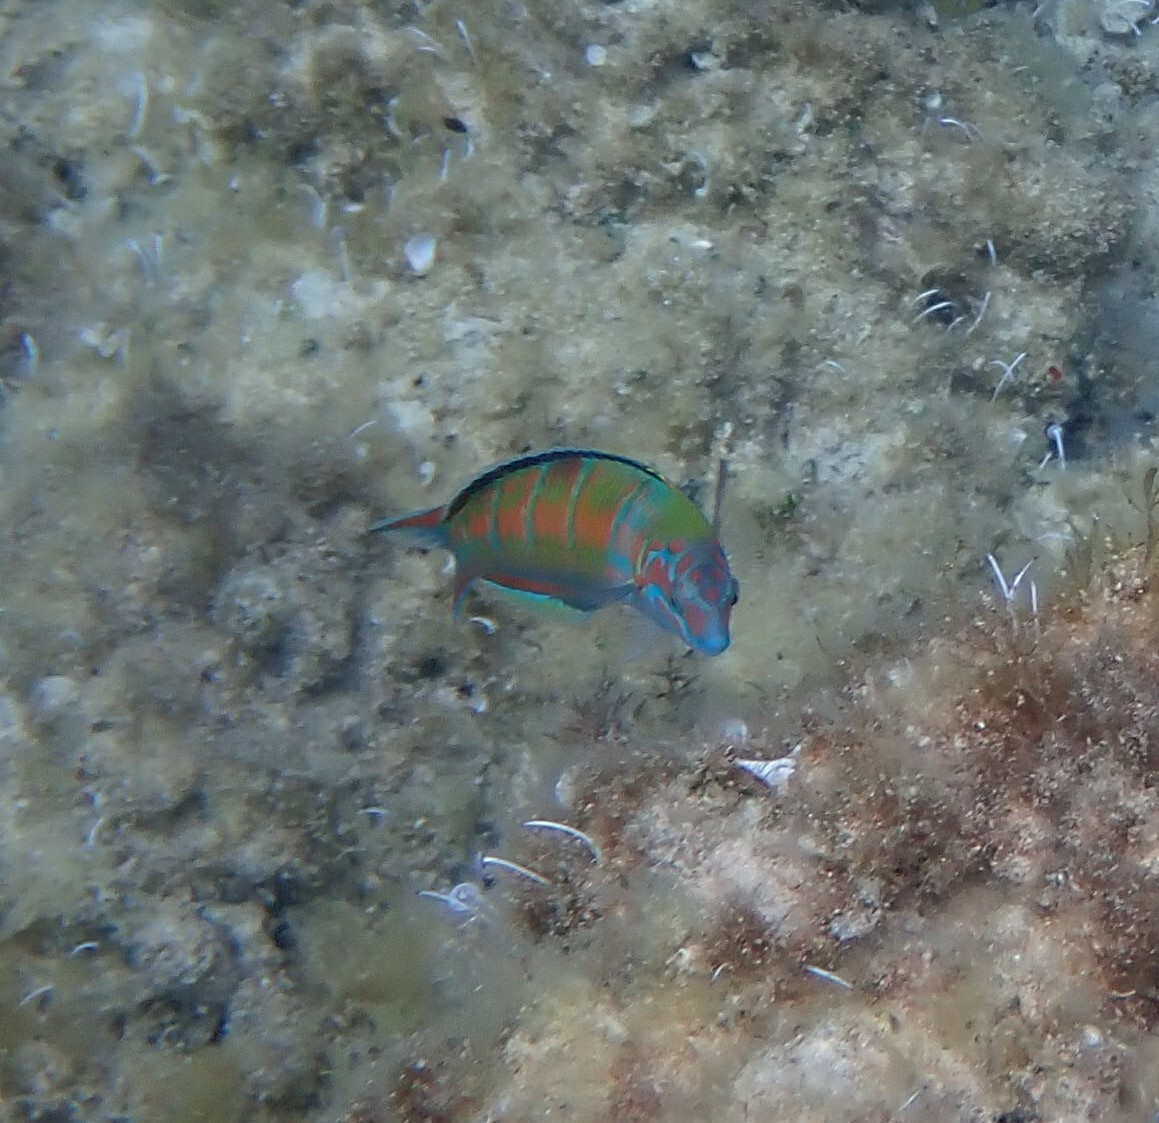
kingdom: Animalia
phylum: Chordata
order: Perciformes
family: Labridae
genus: Thalassoma
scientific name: Thalassoma pavo
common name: Ornate wrasse
